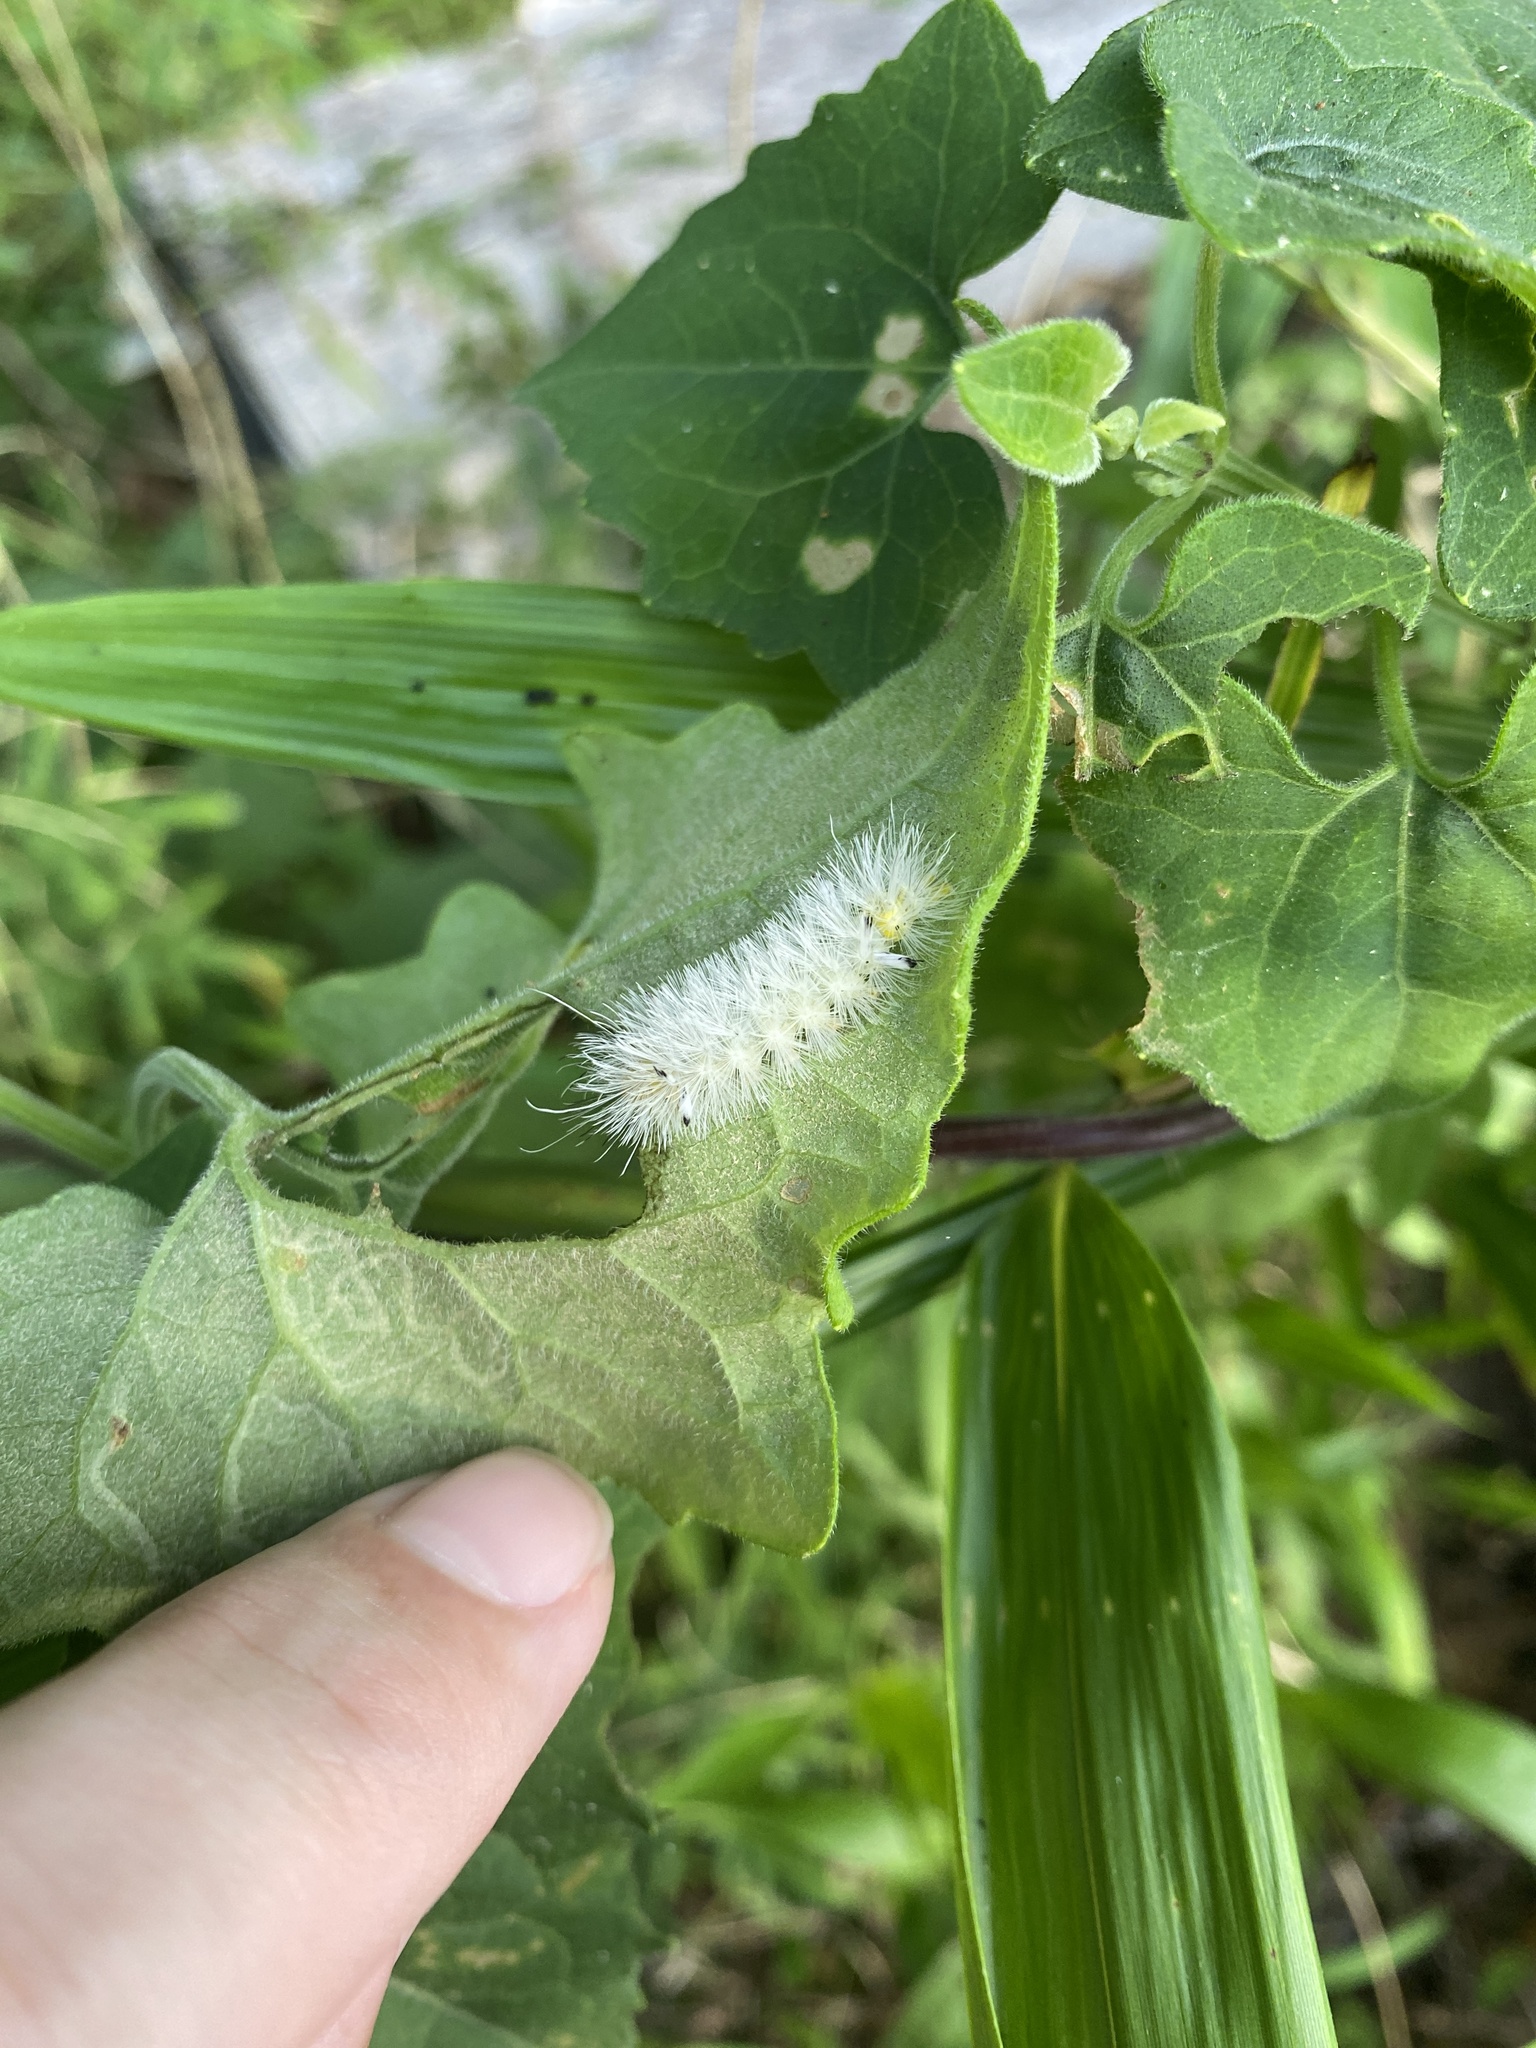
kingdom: Animalia
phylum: Arthropoda
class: Insecta
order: Lepidoptera
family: Erebidae
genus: Cosmosoma
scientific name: Cosmosoma myrodora
